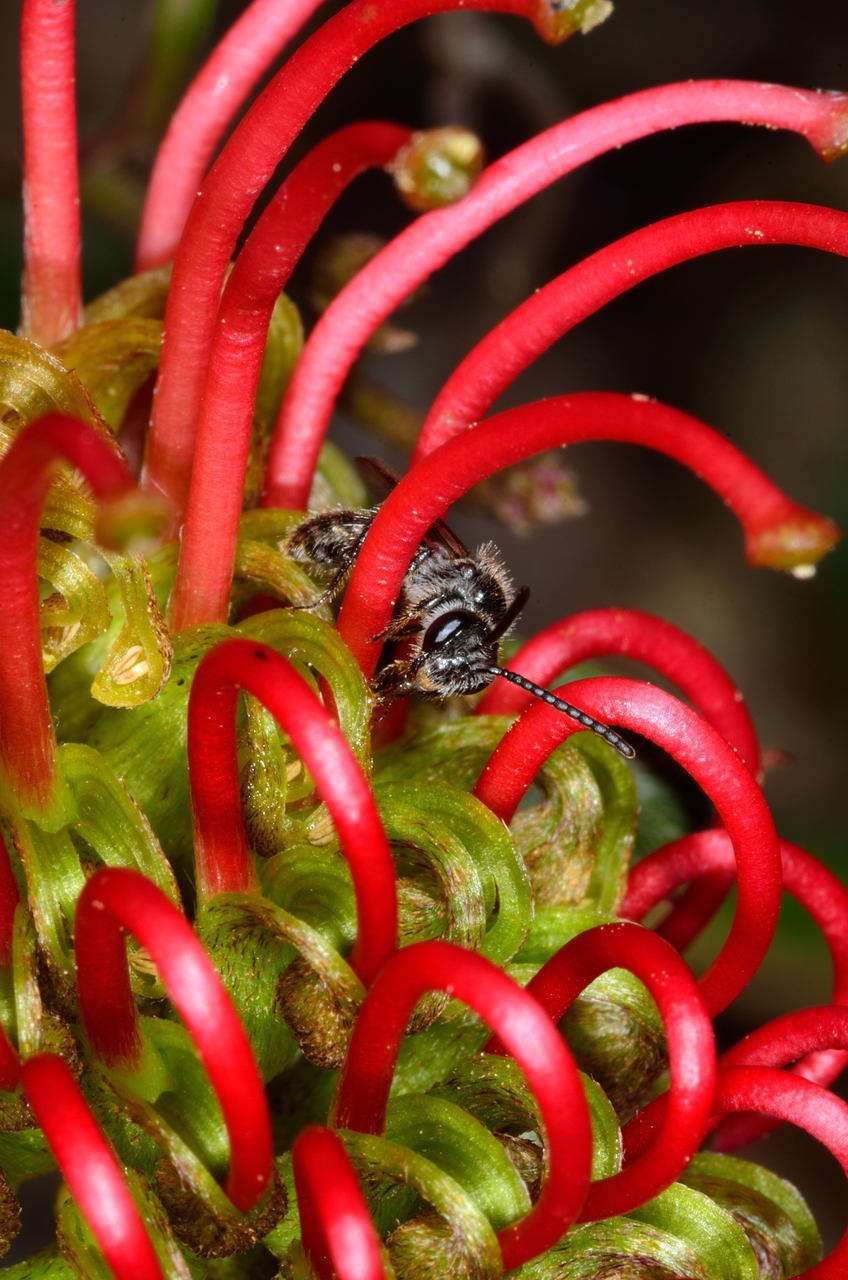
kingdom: Plantae
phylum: Tracheophyta
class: Magnoliopsida
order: Proteales
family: Proteaceae
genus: Grevillea
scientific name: Grevillea steiglitziana
